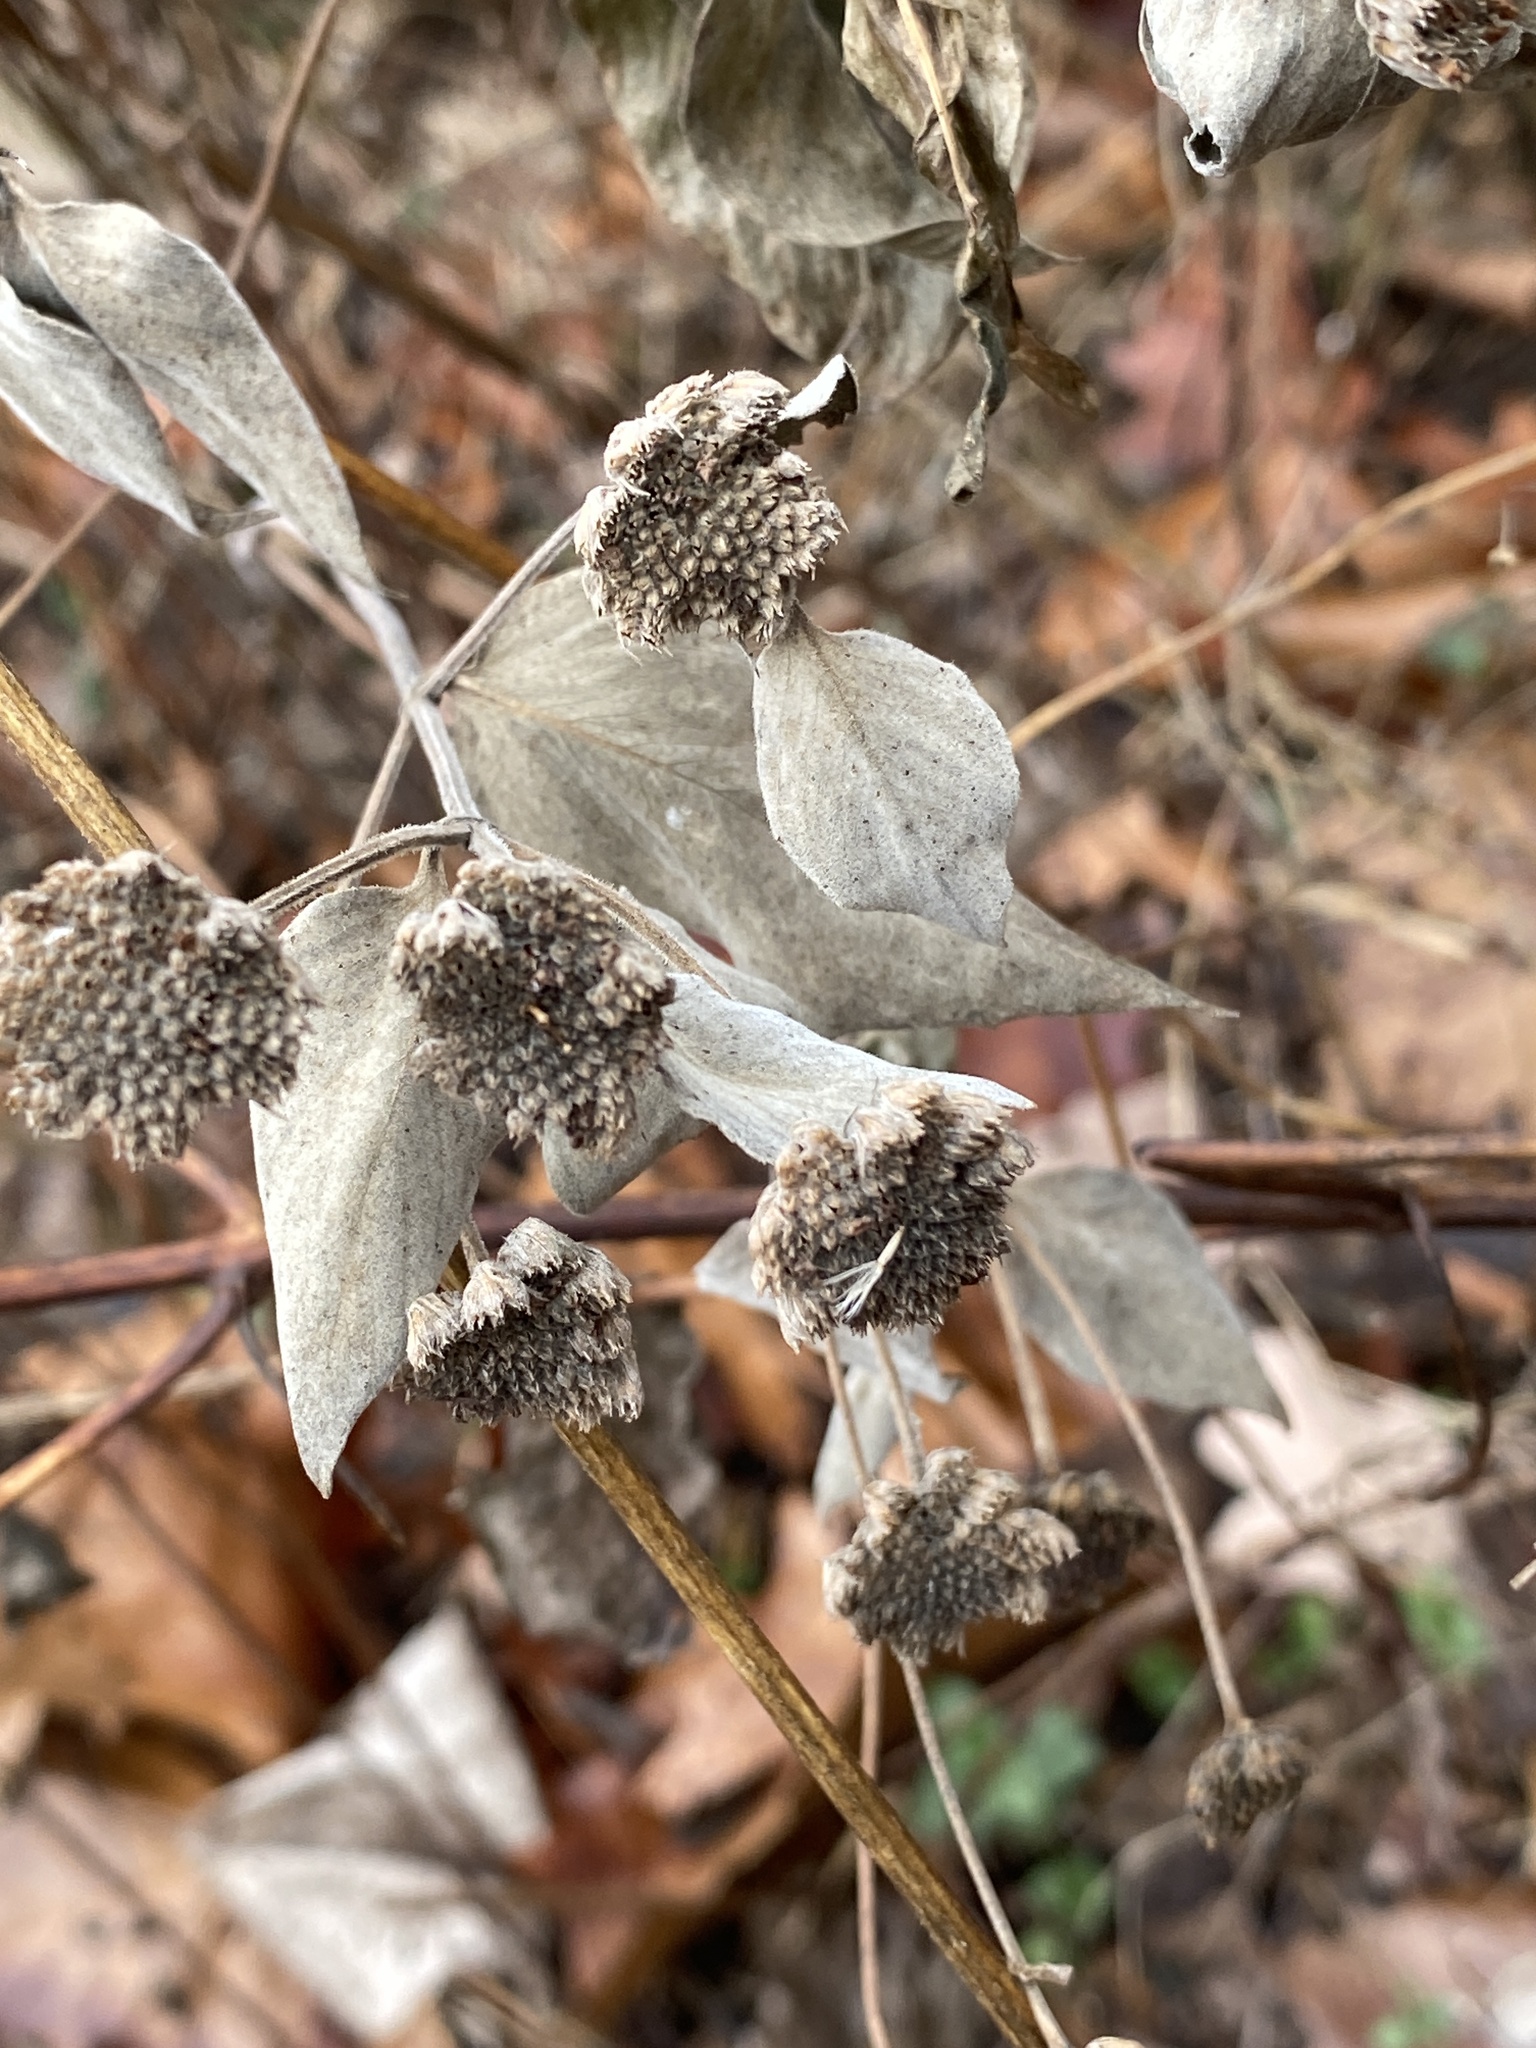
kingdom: Plantae
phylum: Tracheophyta
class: Magnoliopsida
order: Lamiales
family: Lamiaceae
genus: Pycnanthemum
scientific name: Pycnanthemum muticum
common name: Blunt mountain-mint
